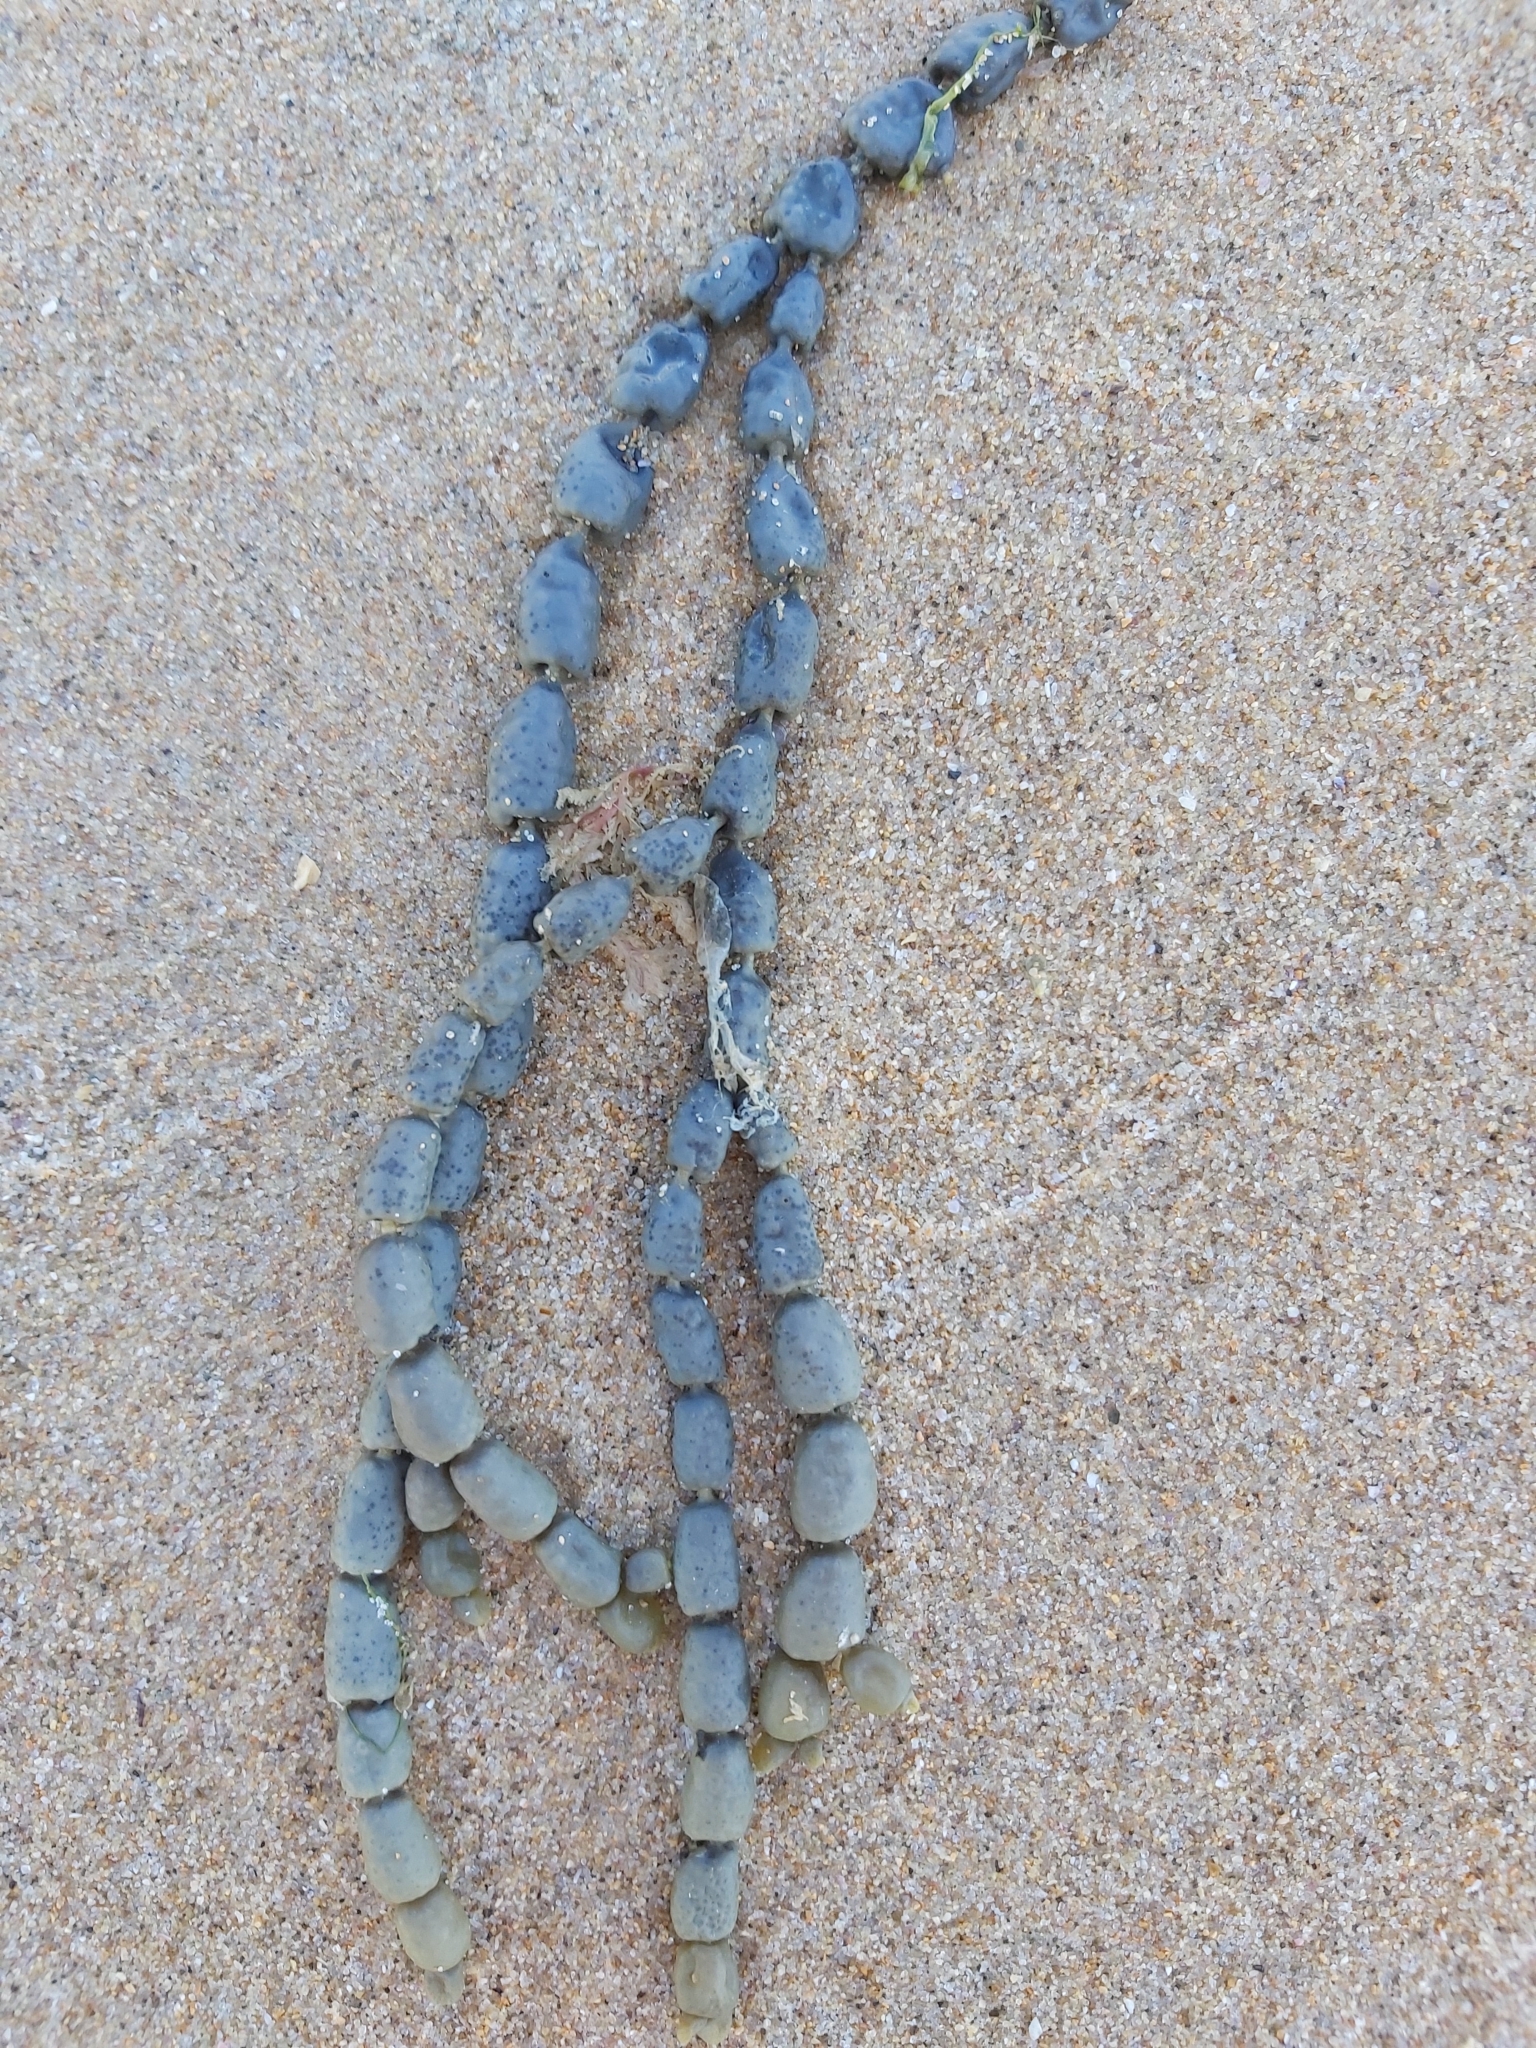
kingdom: Chromista
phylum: Ochrophyta
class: Phaeophyceae
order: Fucales
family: Hormosiraceae
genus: Hormosira
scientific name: Hormosira banksii
